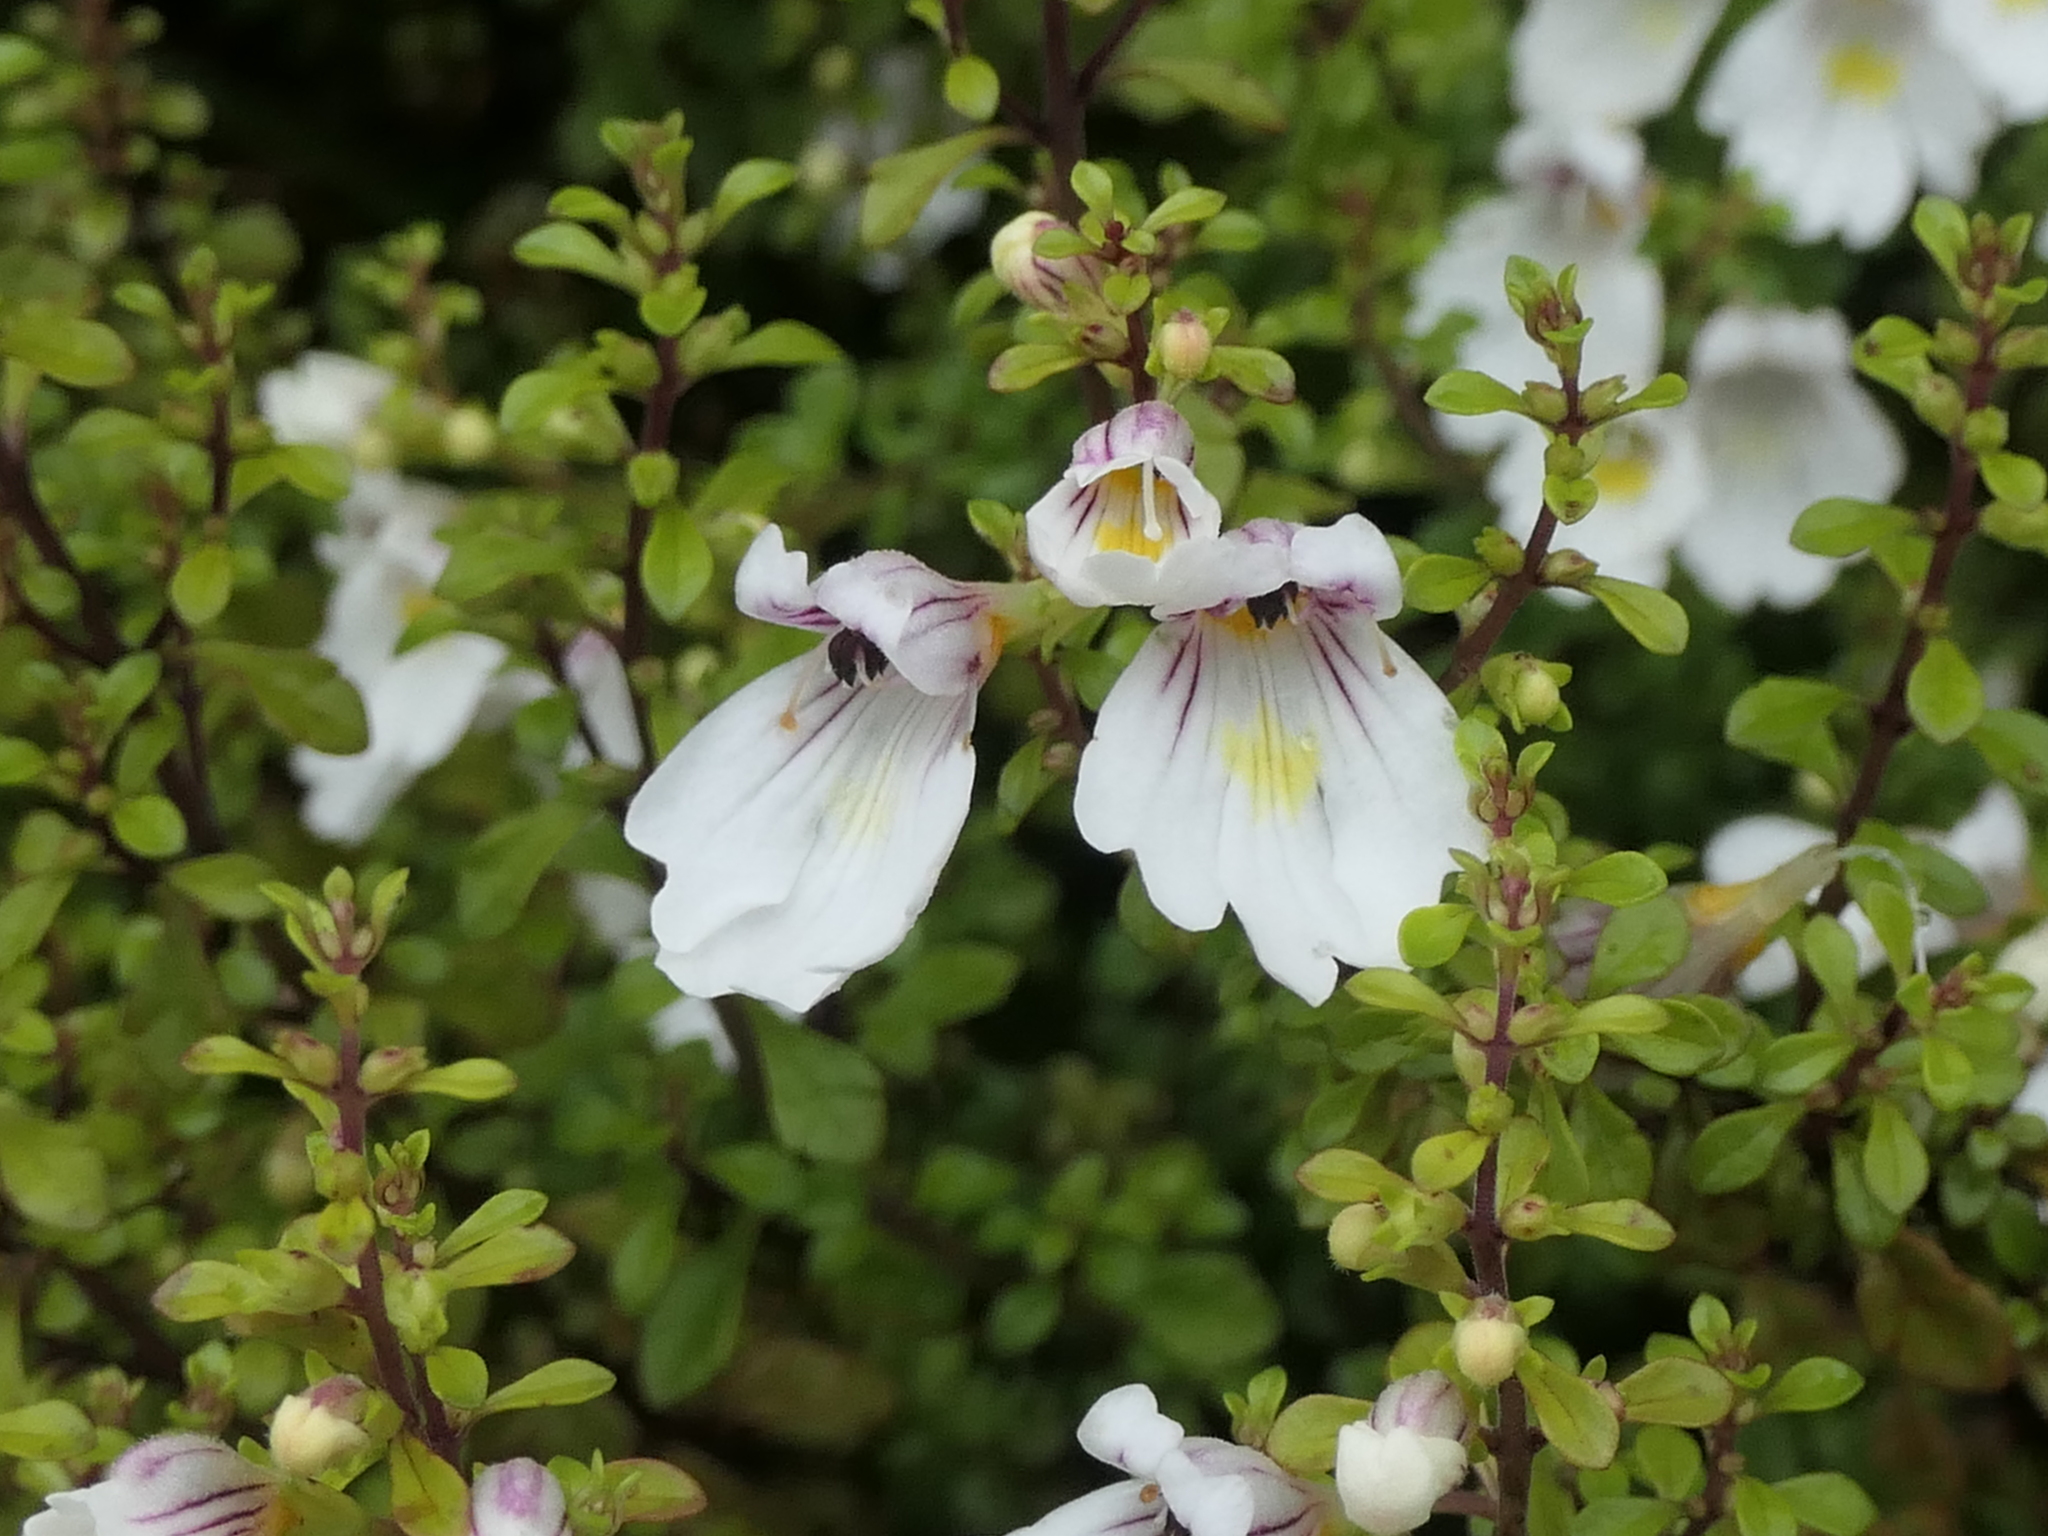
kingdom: Plantae
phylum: Tracheophyta
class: Magnoliopsida
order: Lamiales
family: Orobanchaceae
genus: Euphrasia
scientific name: Euphrasia cuneata
